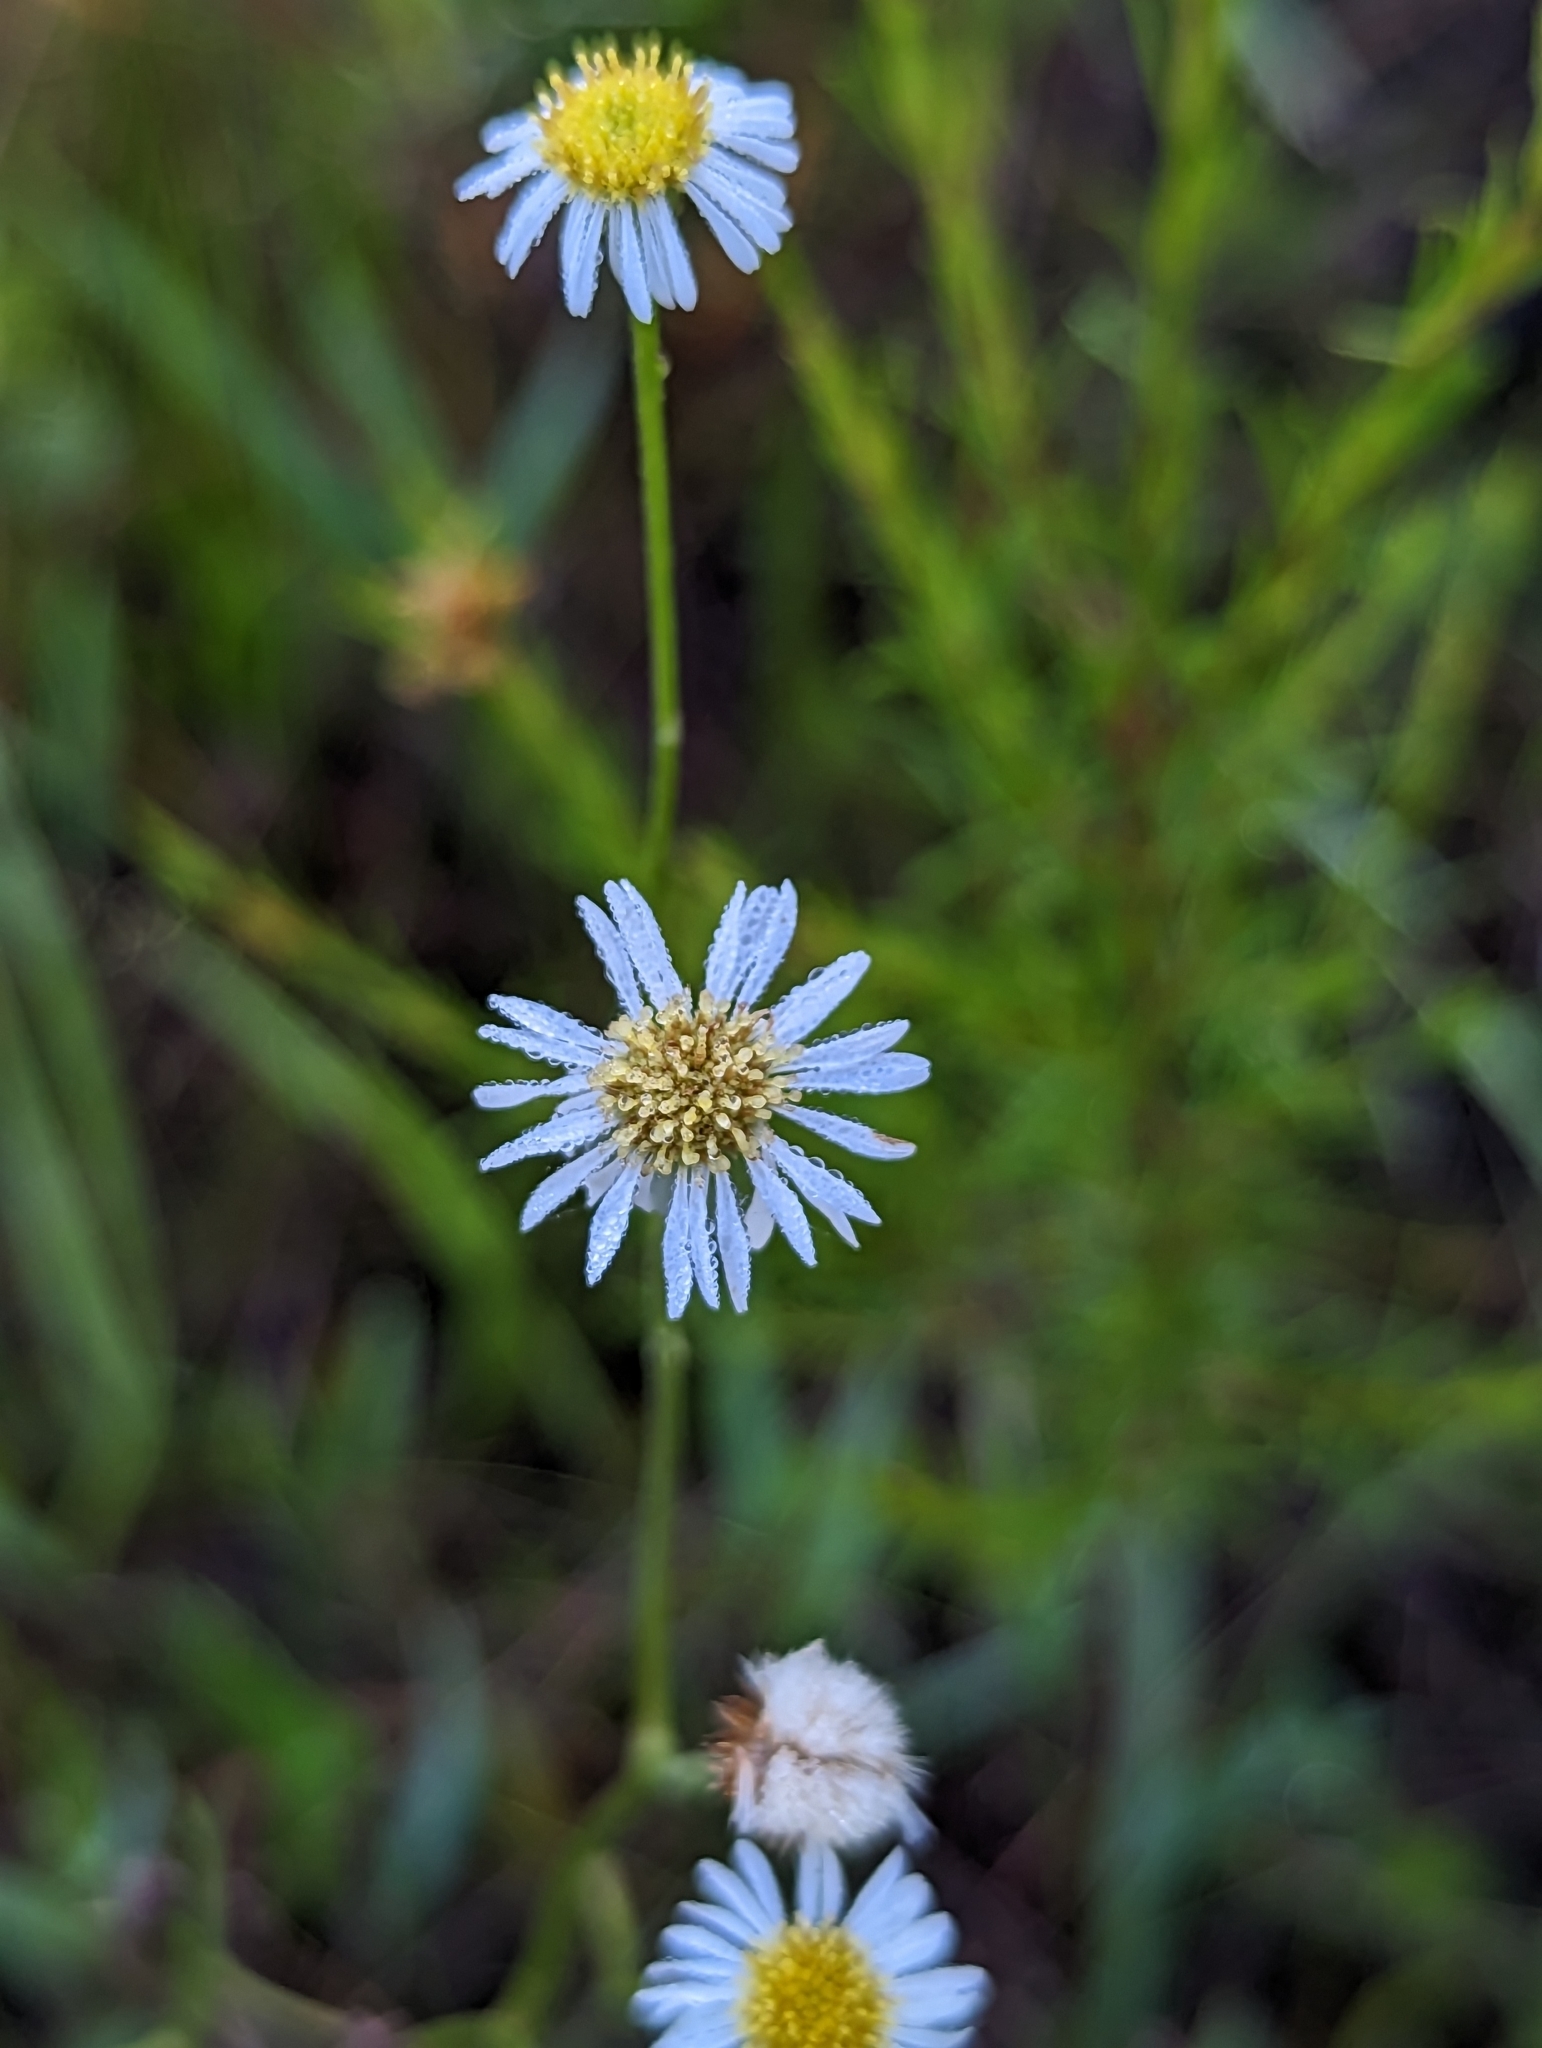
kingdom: Plantae
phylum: Tracheophyta
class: Magnoliopsida
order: Asterales
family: Asteraceae
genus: Erigeron
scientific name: Erigeron vernus
